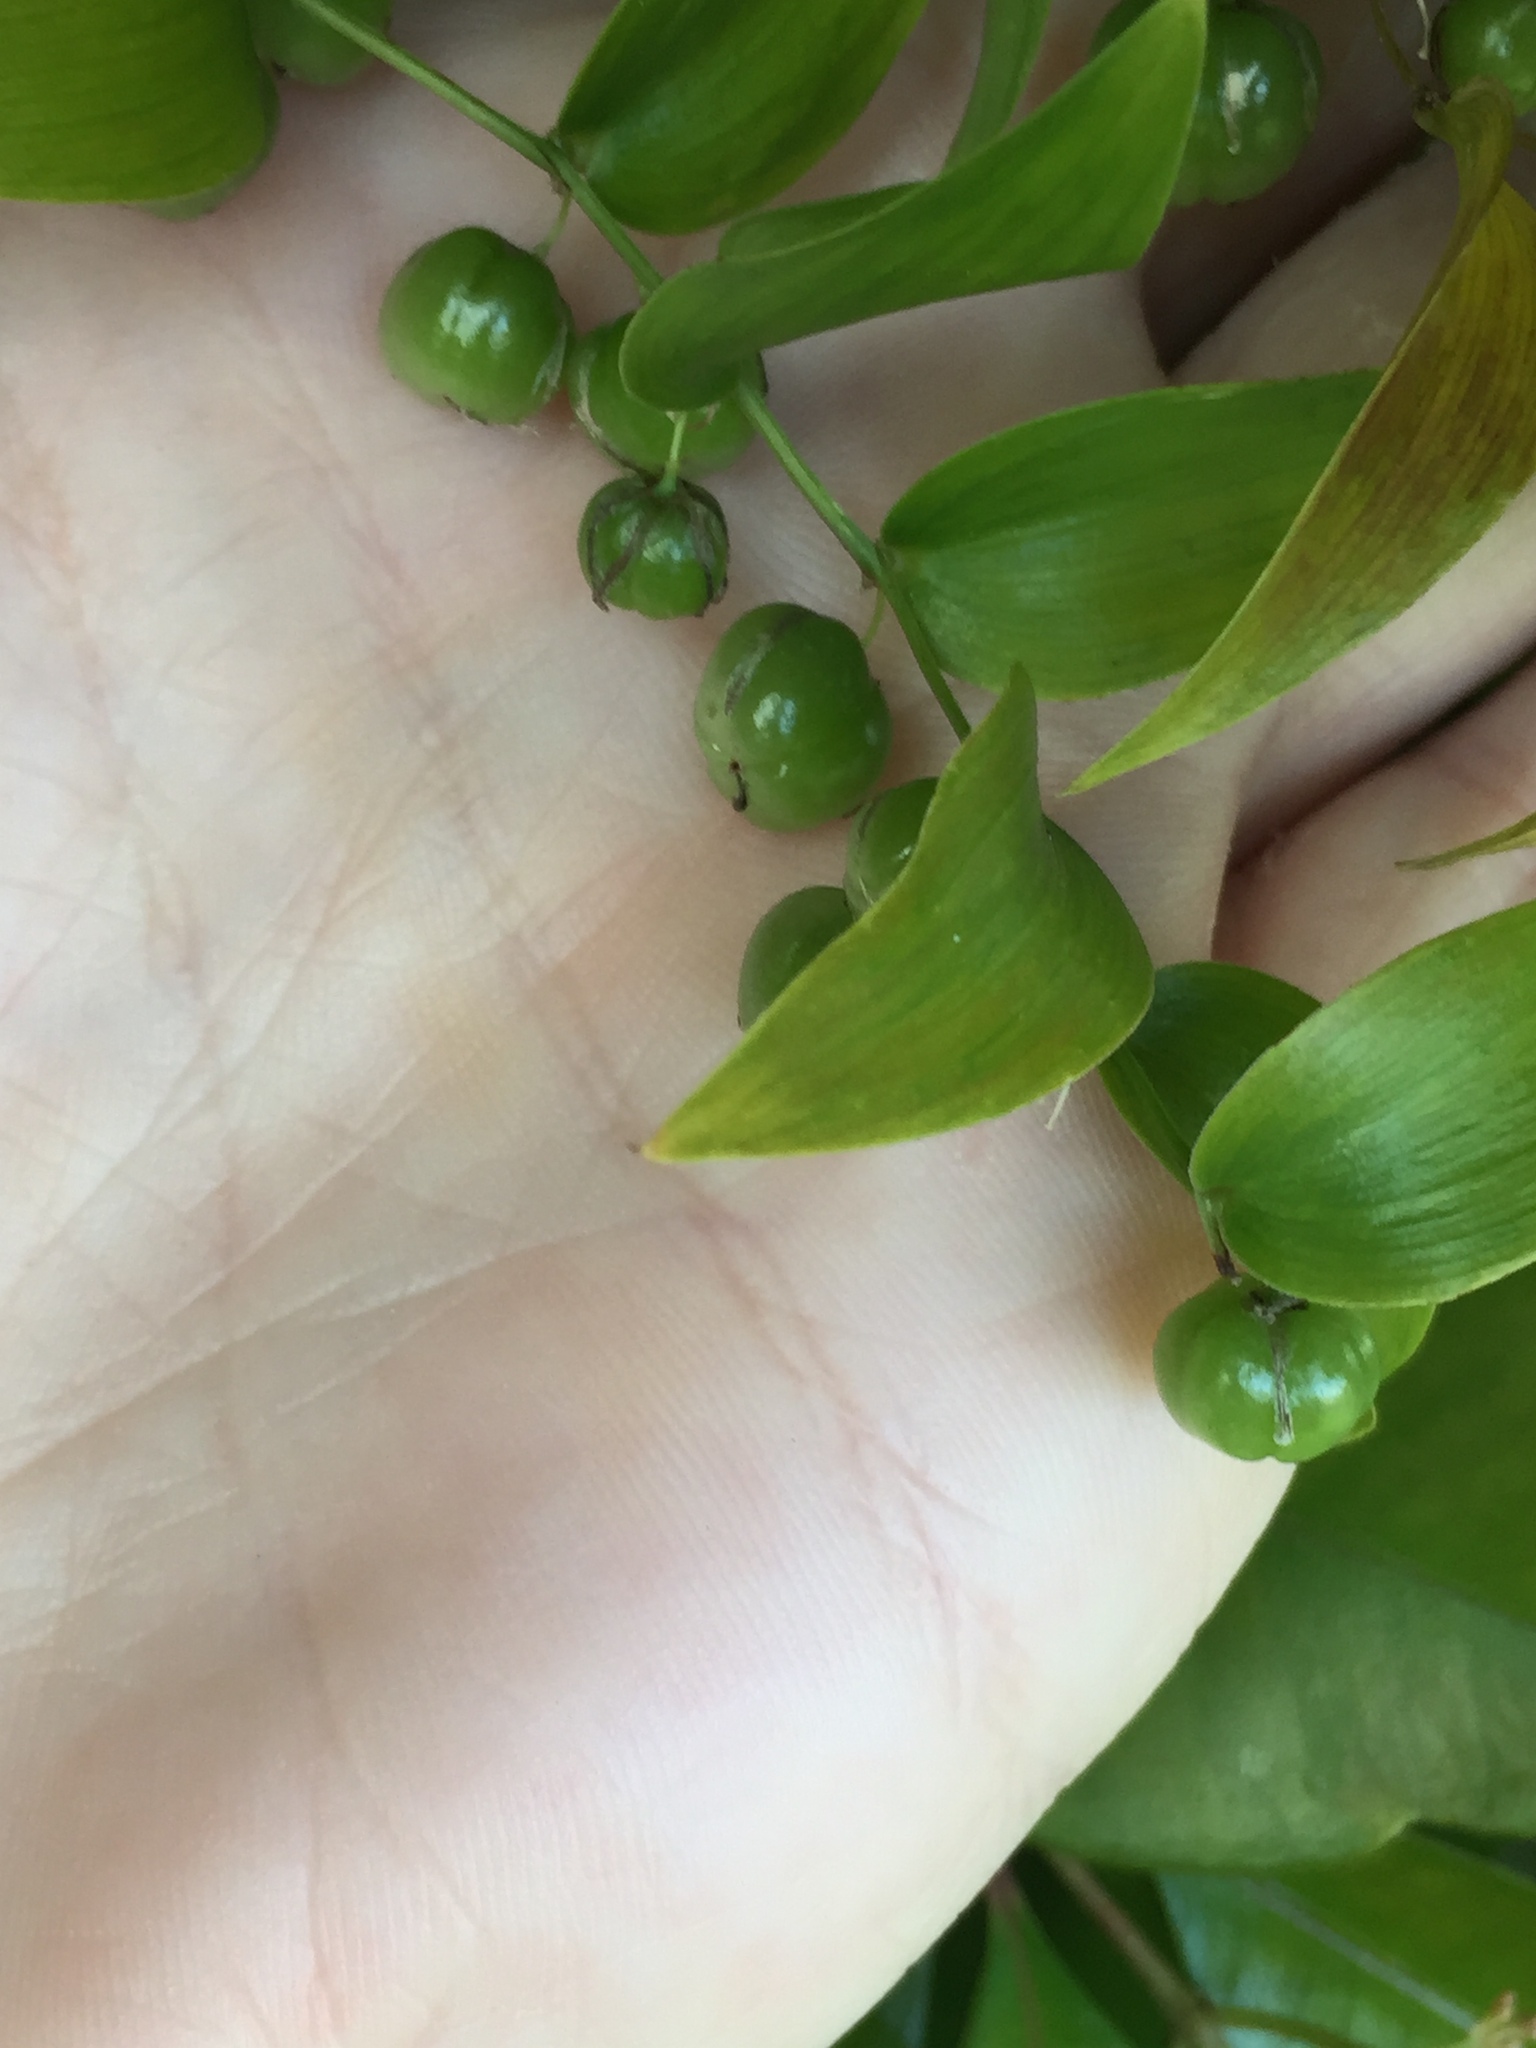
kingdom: Plantae
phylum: Tracheophyta
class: Liliopsida
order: Asparagales
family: Asparagaceae
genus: Asparagus
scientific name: Asparagus asparagoides
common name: African asparagus fern
